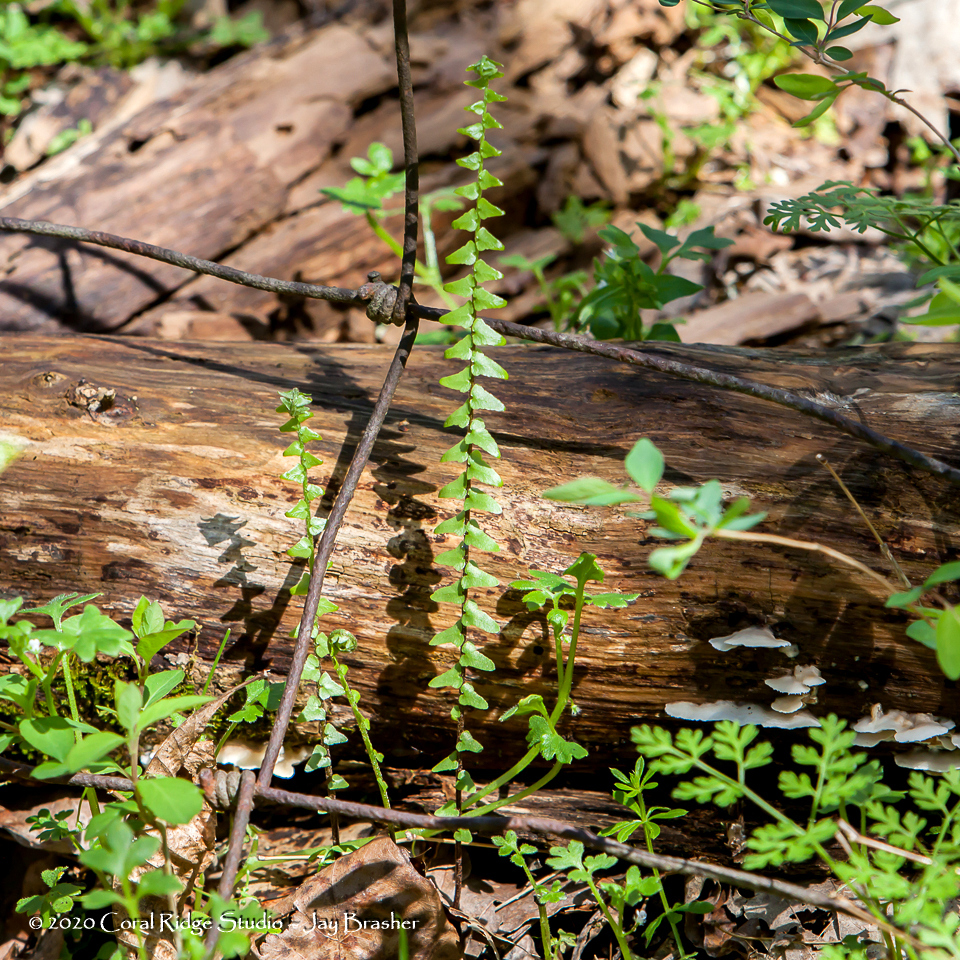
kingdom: Plantae
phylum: Tracheophyta
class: Polypodiopsida
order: Polypodiales
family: Aspleniaceae
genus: Asplenium
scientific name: Asplenium platyneuron
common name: Ebony spleenwort
